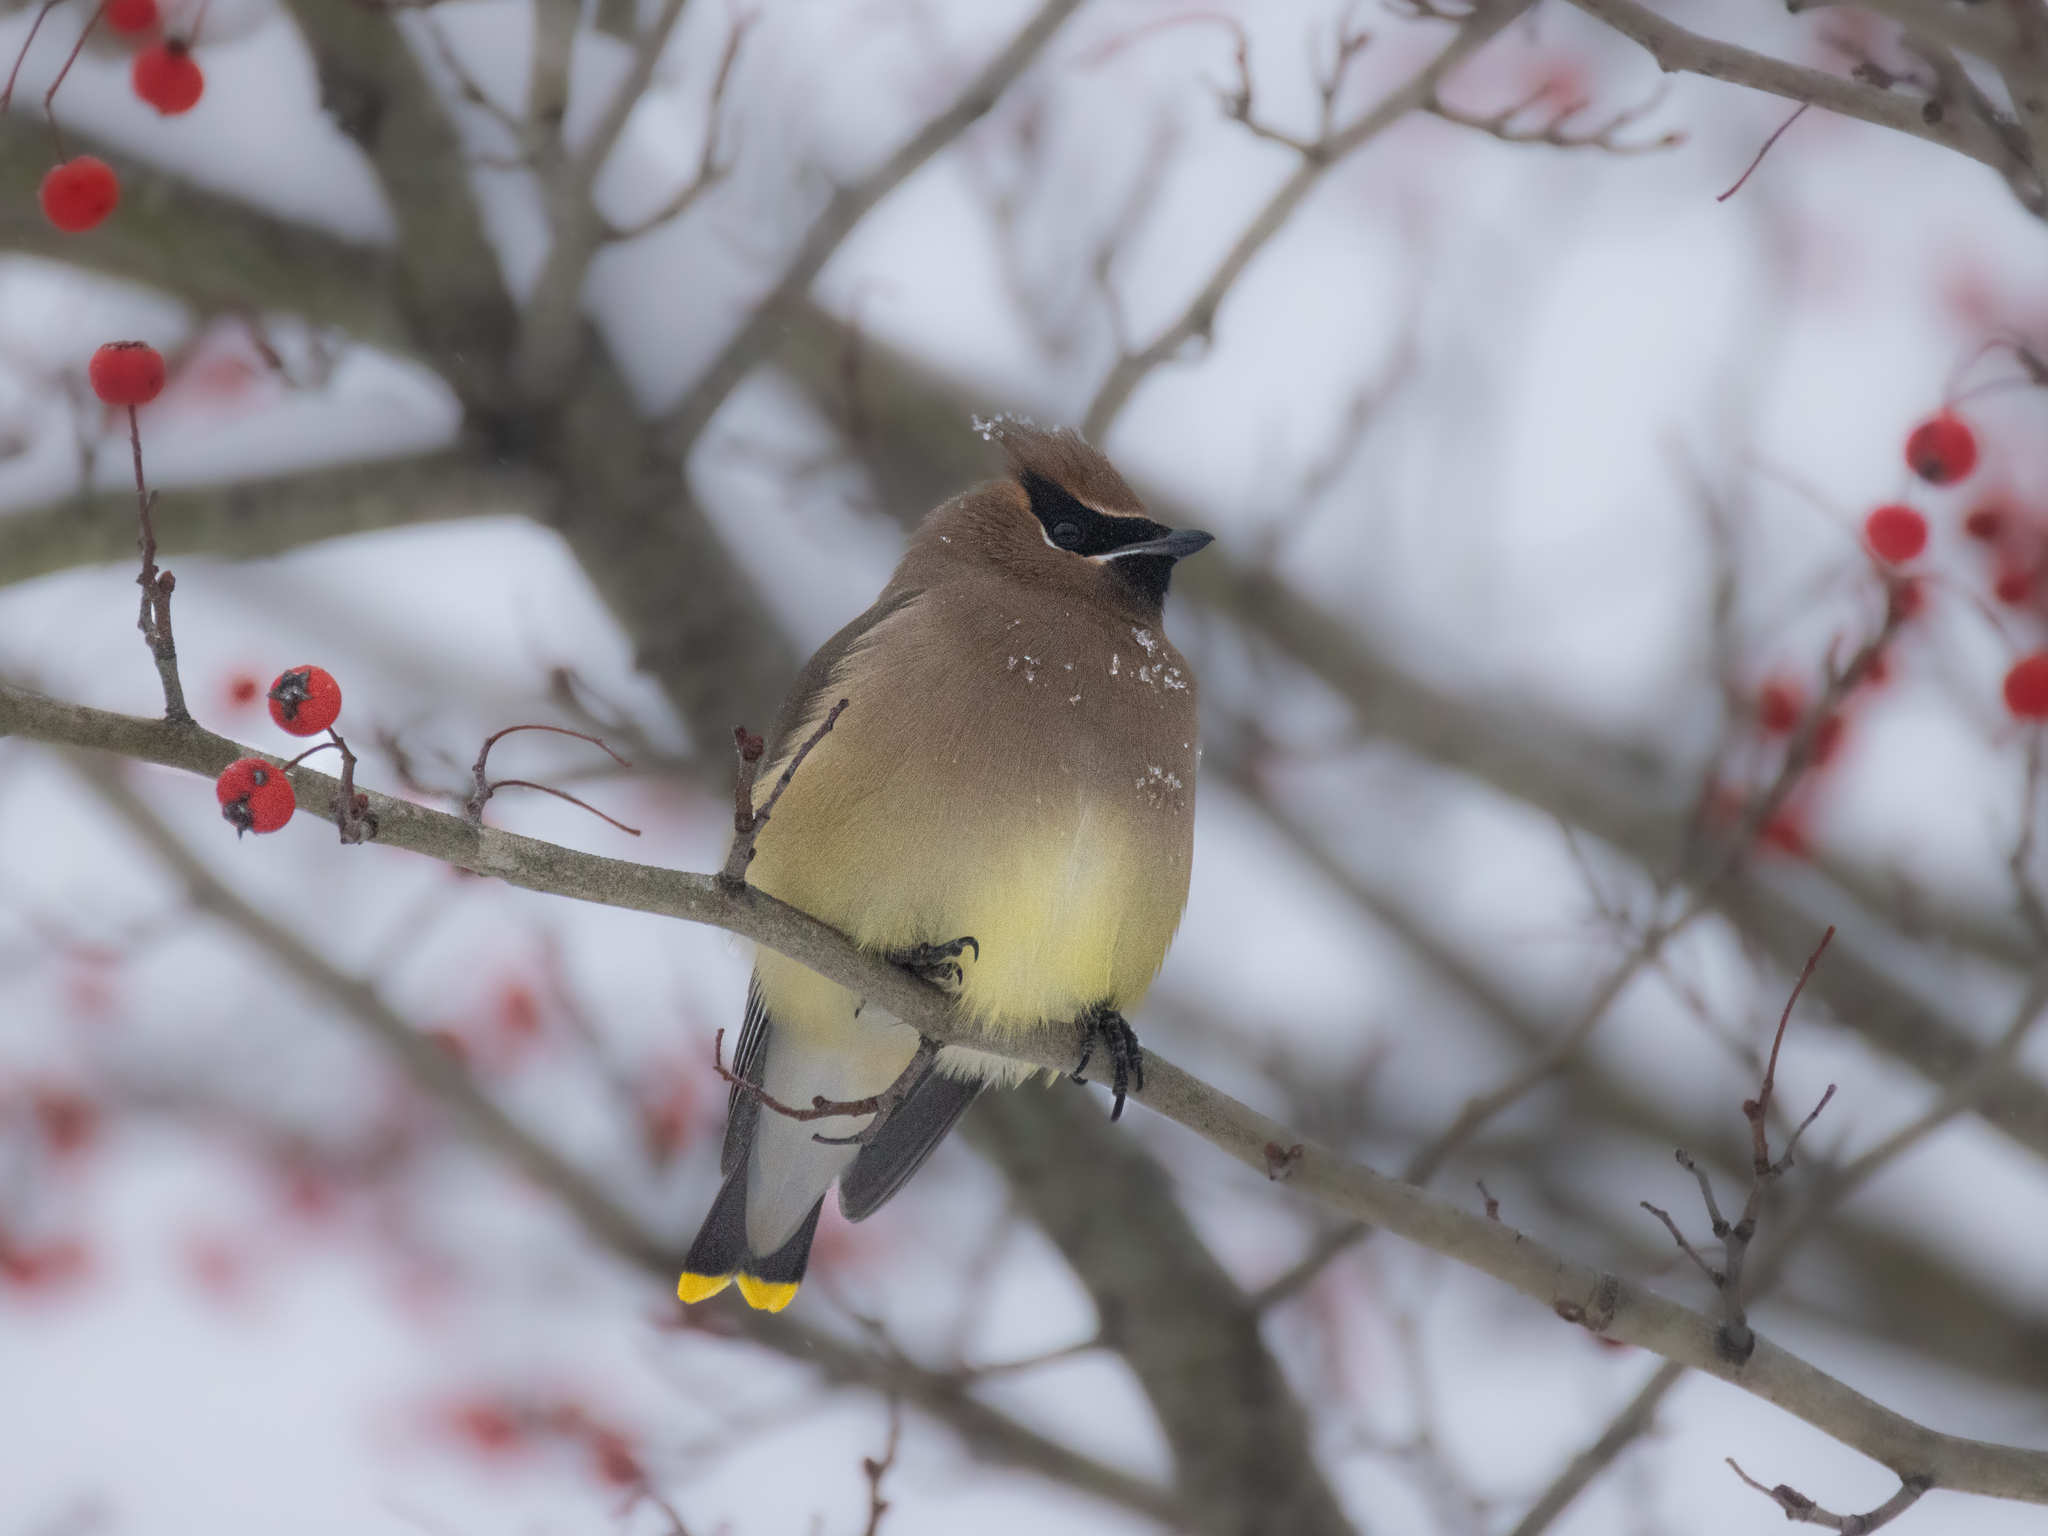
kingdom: Animalia
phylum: Chordata
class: Aves
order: Passeriformes
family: Bombycillidae
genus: Bombycilla
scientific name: Bombycilla cedrorum
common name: Cedar waxwing
